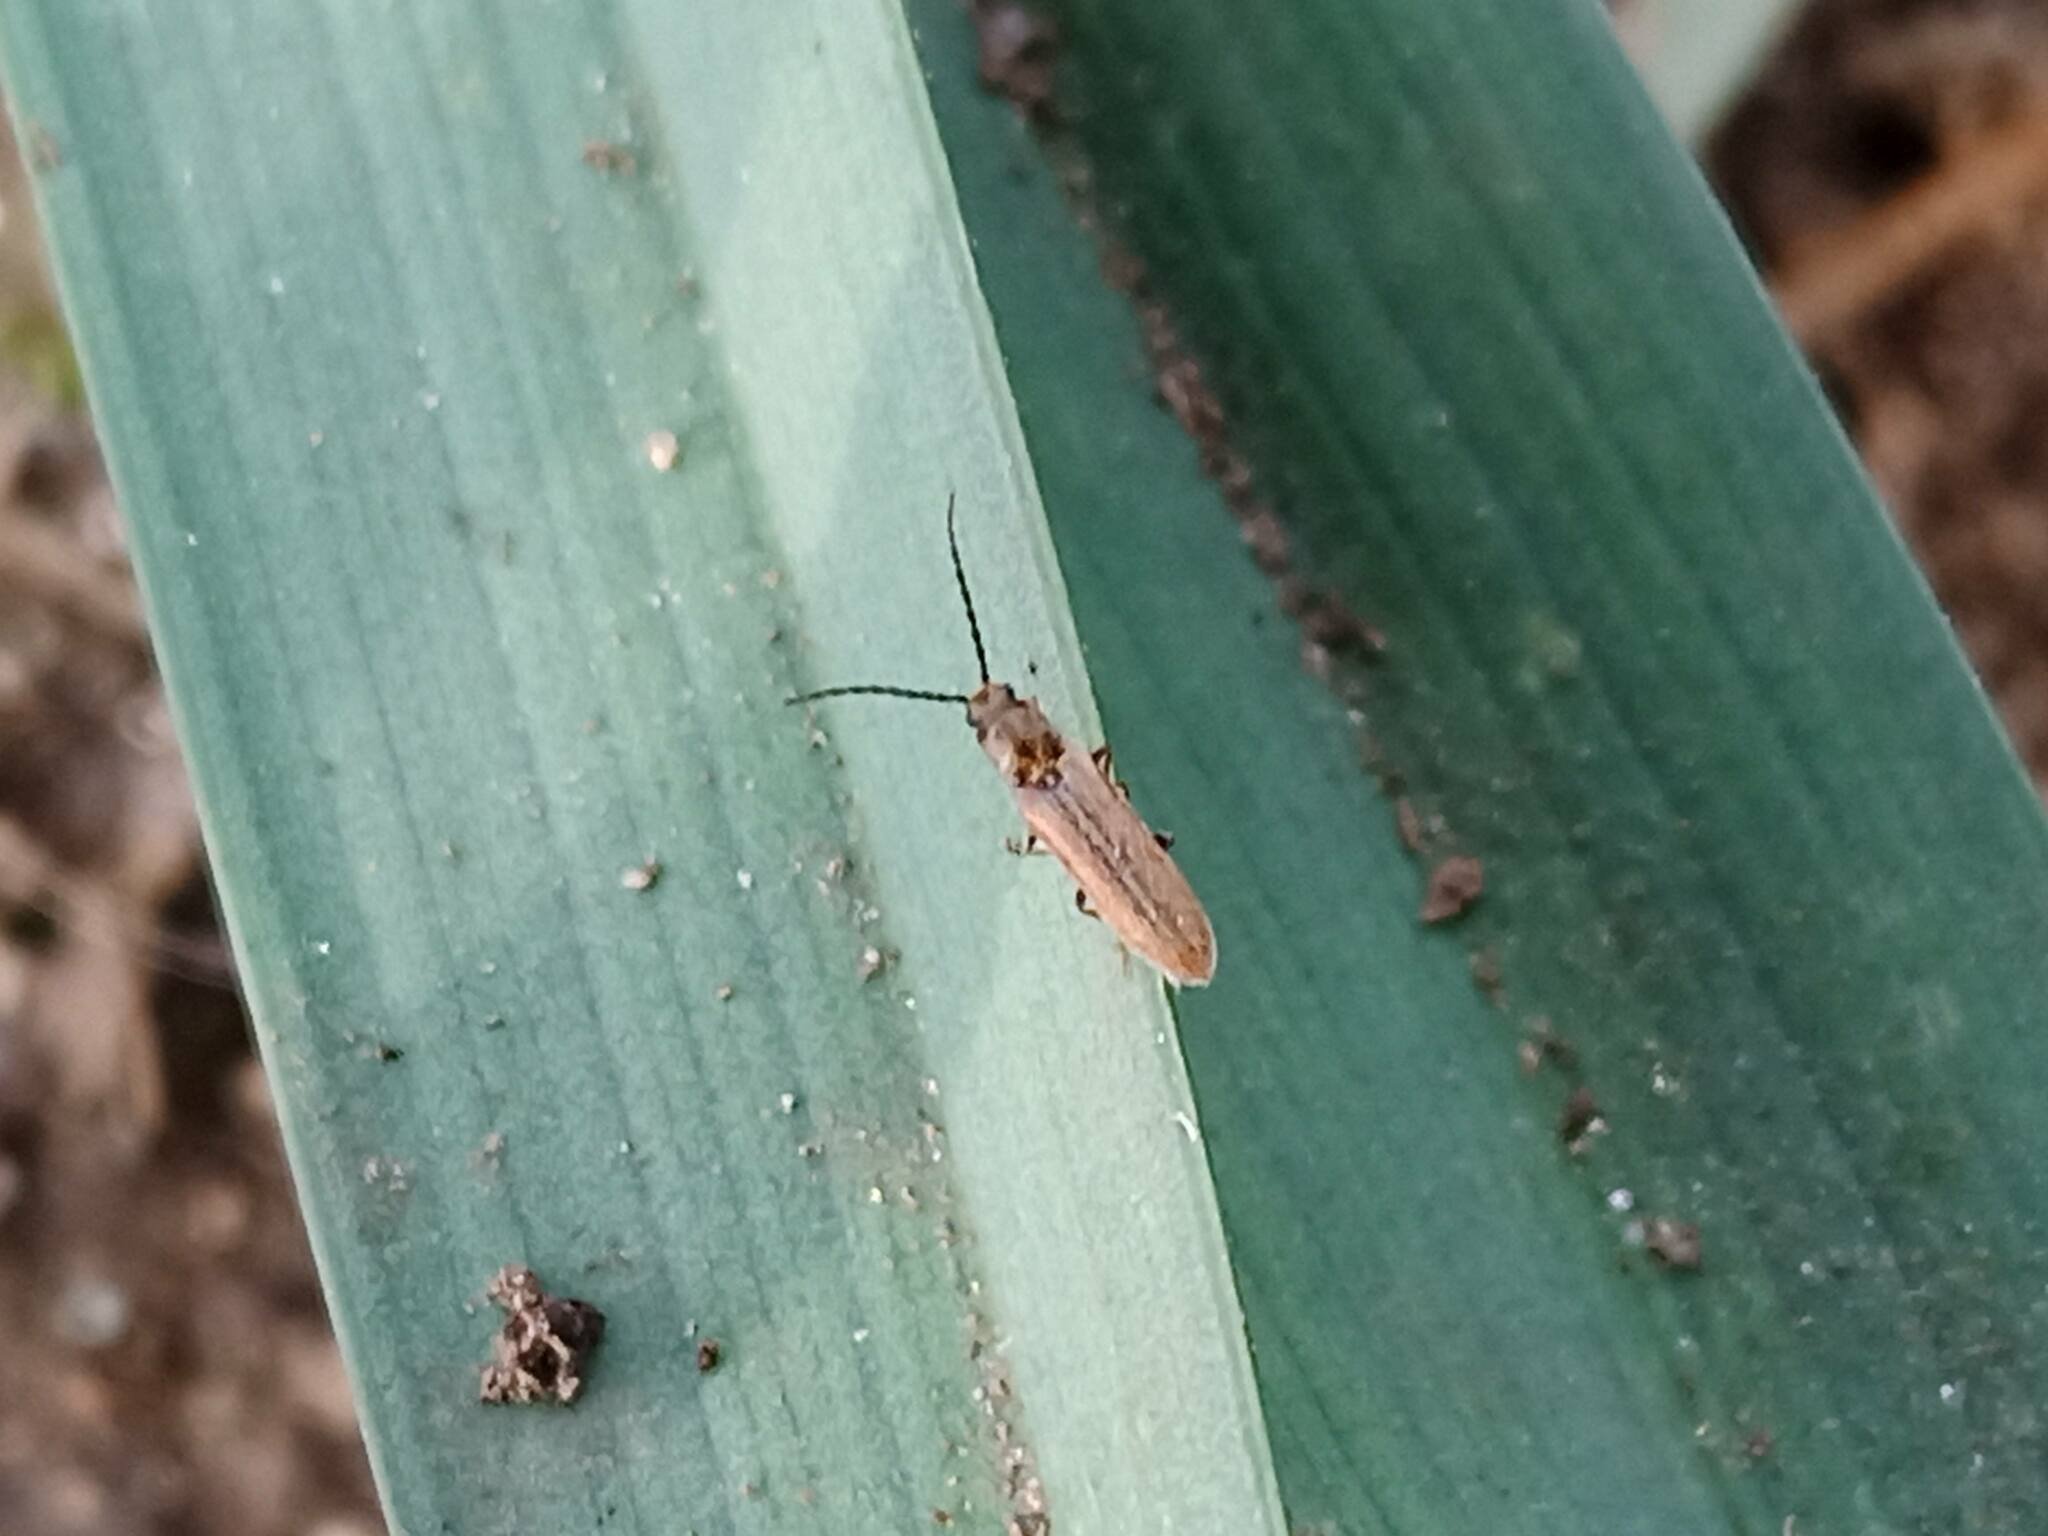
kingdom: Animalia
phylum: Arthropoda
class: Insecta
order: Coleoptera
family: Elateridae
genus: Campylomorphus
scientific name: Campylomorphus homalisinus
